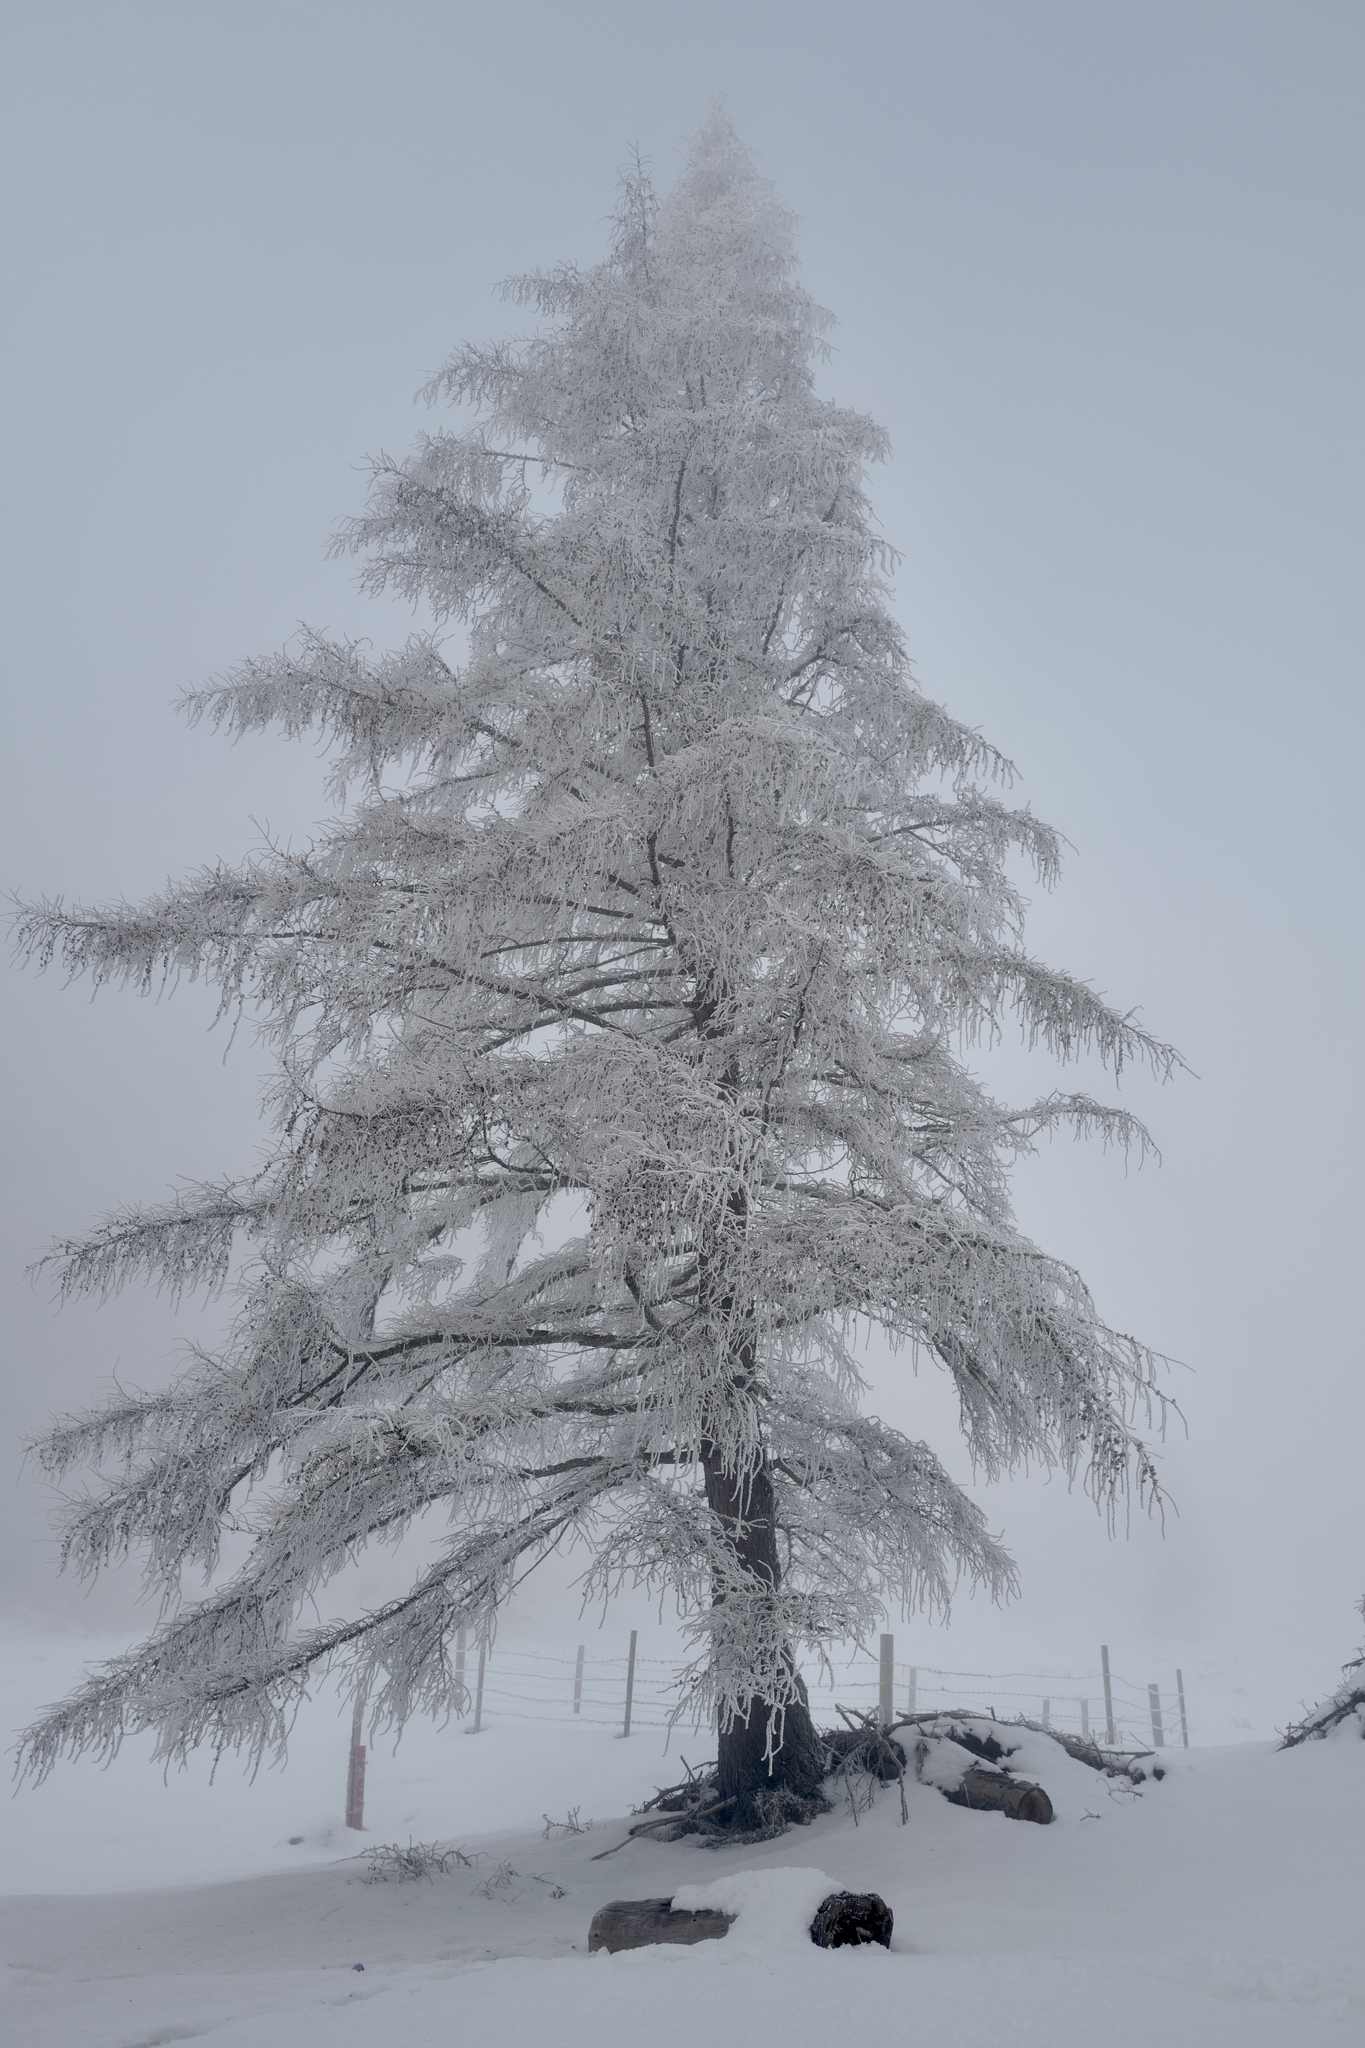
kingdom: Plantae
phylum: Tracheophyta
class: Pinopsida
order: Pinales
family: Pinaceae
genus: Larix
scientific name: Larix decidua
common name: European larch
